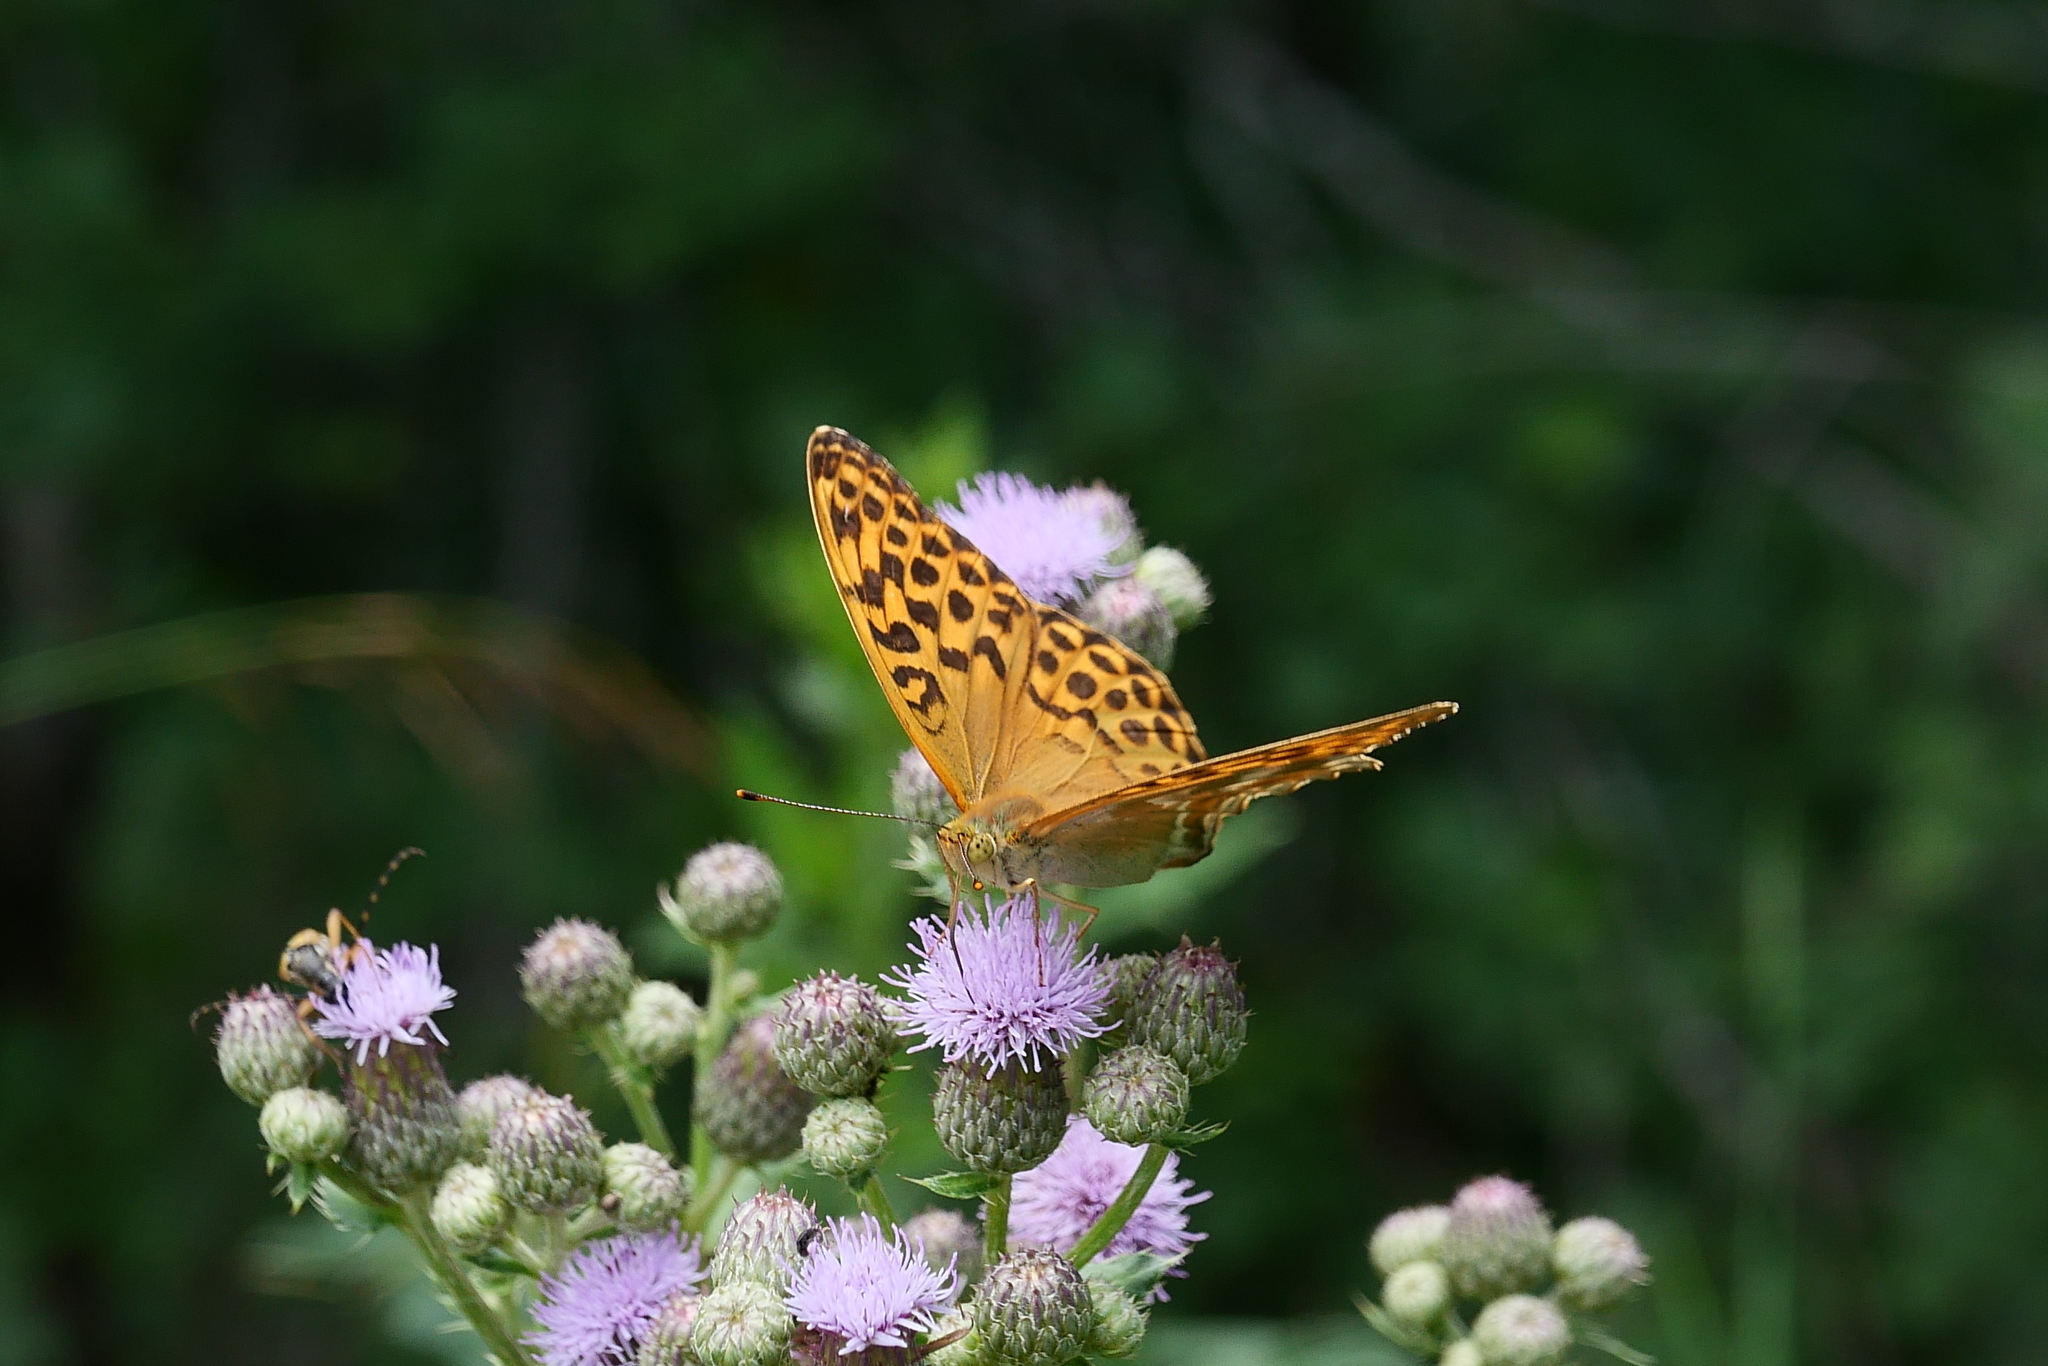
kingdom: Animalia
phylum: Arthropoda
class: Insecta
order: Lepidoptera
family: Nymphalidae
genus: Argynnis
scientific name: Argynnis paphia
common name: Silver-washed fritillary
